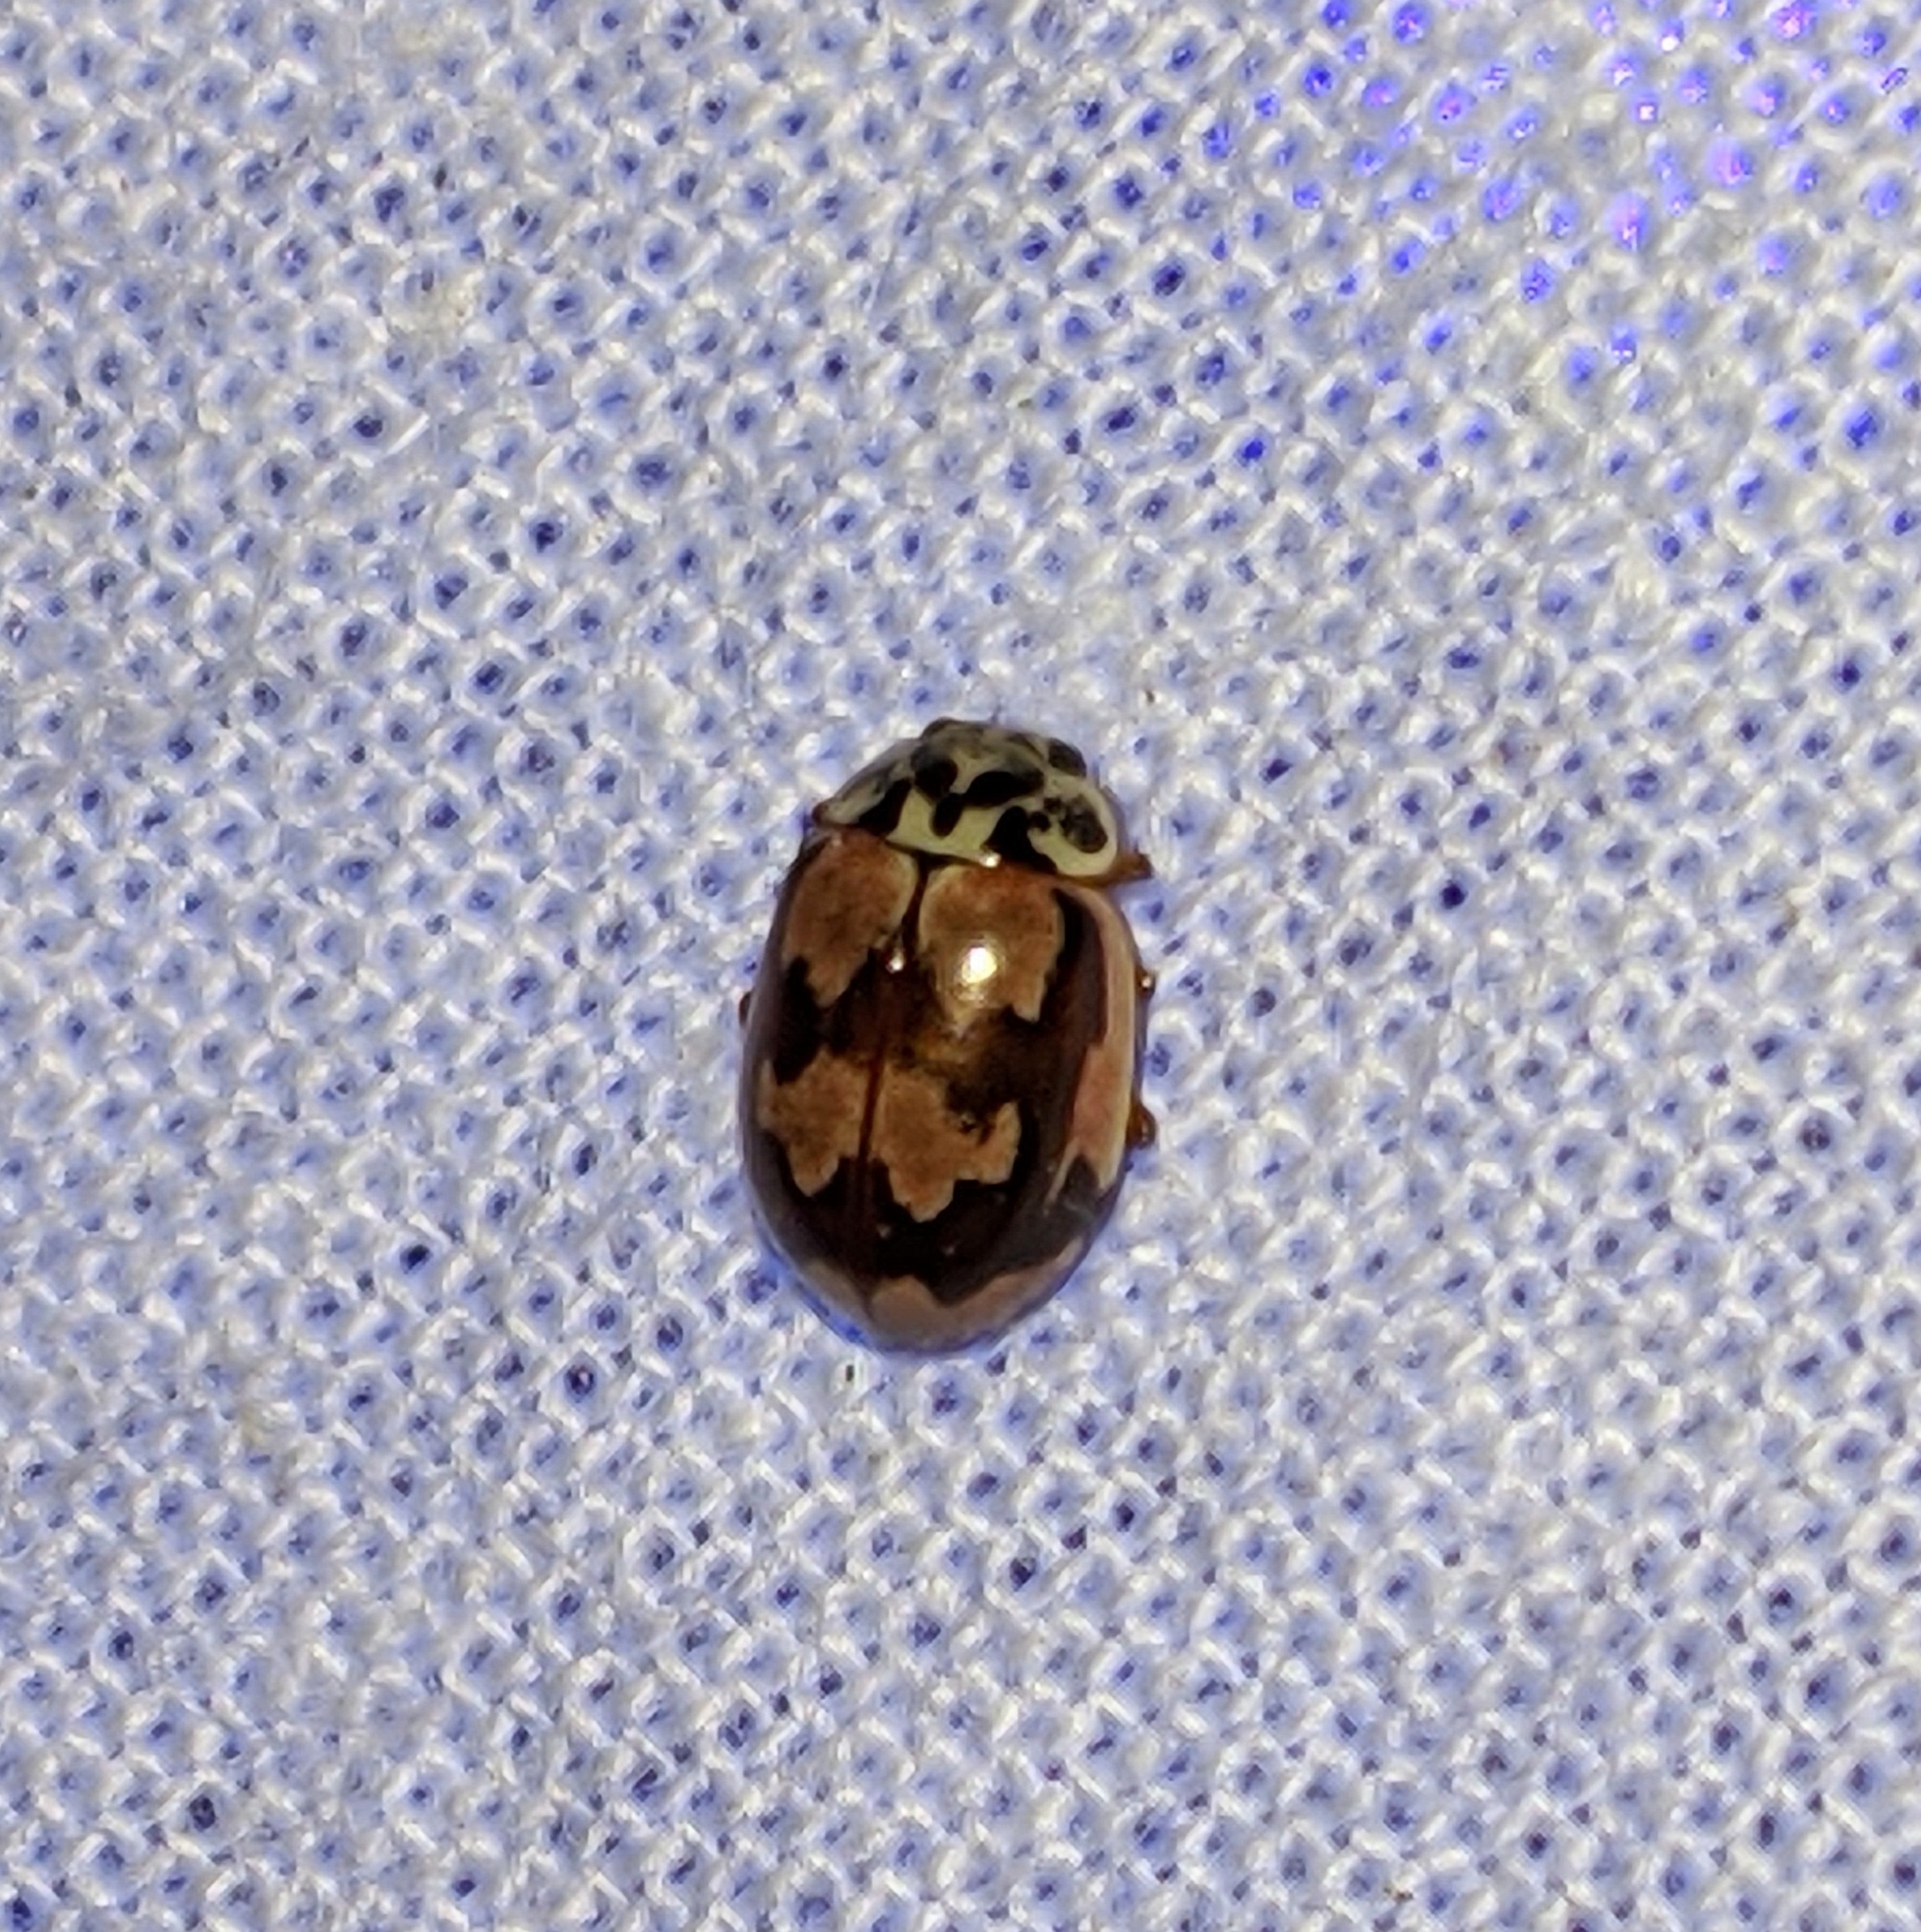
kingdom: Animalia
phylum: Arthropoda
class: Insecta
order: Coleoptera
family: Coccinellidae
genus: Mulsantina
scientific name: Mulsantina picta
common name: Painted ladybird
